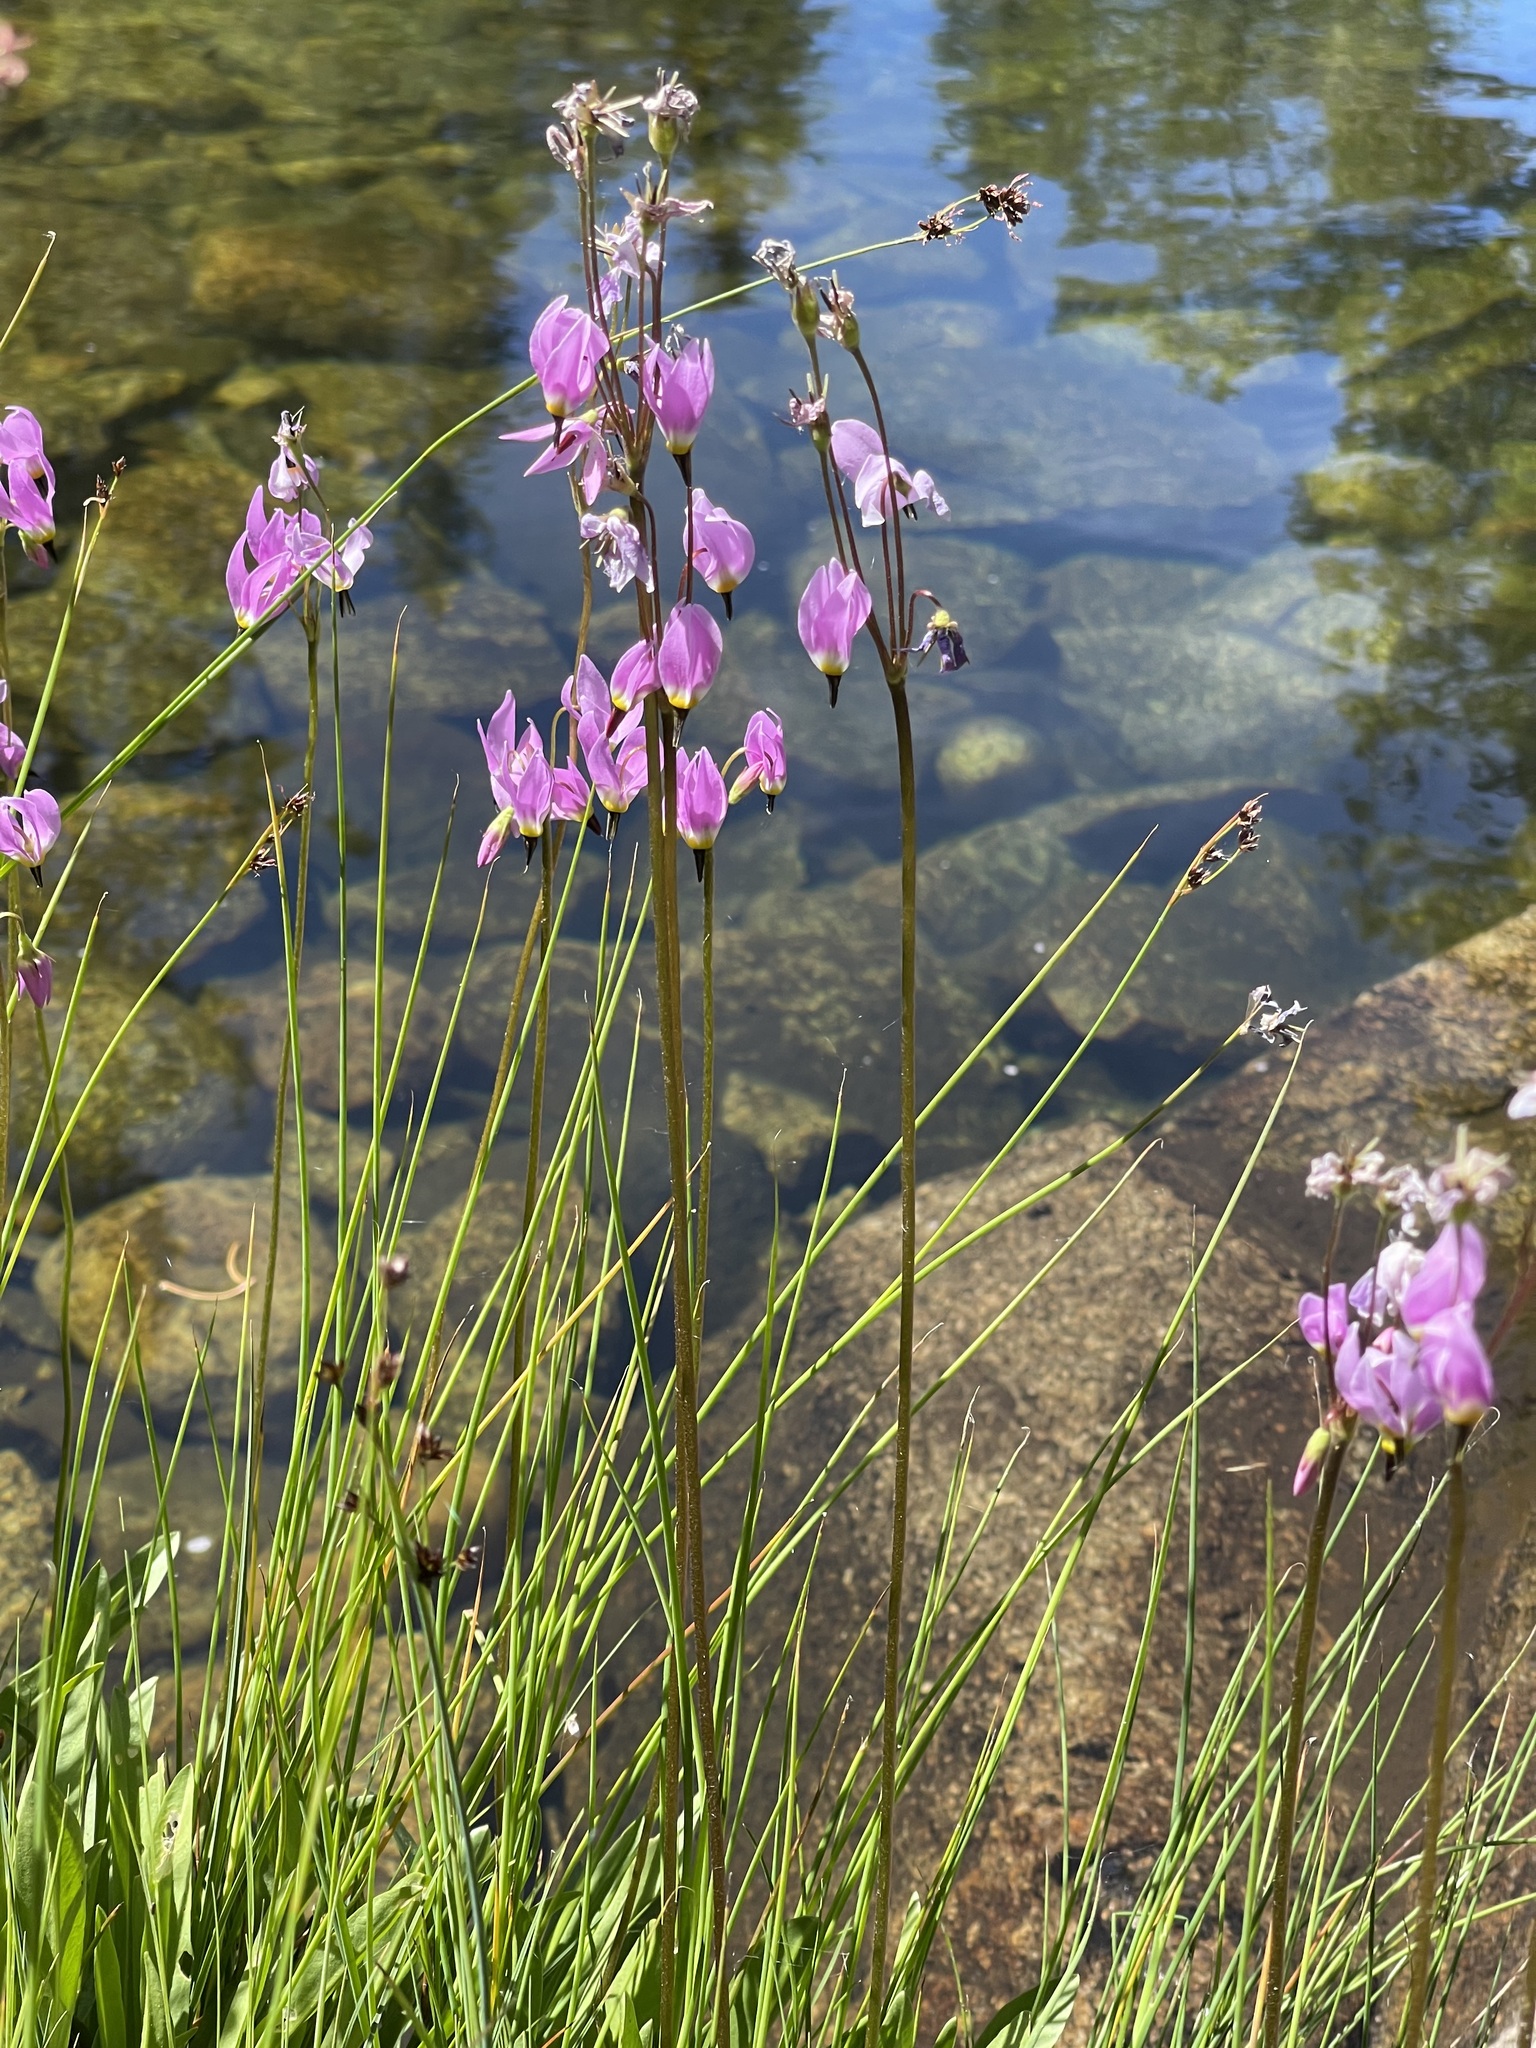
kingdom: Plantae
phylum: Tracheophyta
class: Magnoliopsida
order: Ericales
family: Primulaceae
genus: Dodecatheon
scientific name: Dodecatheon jeffreyanum
